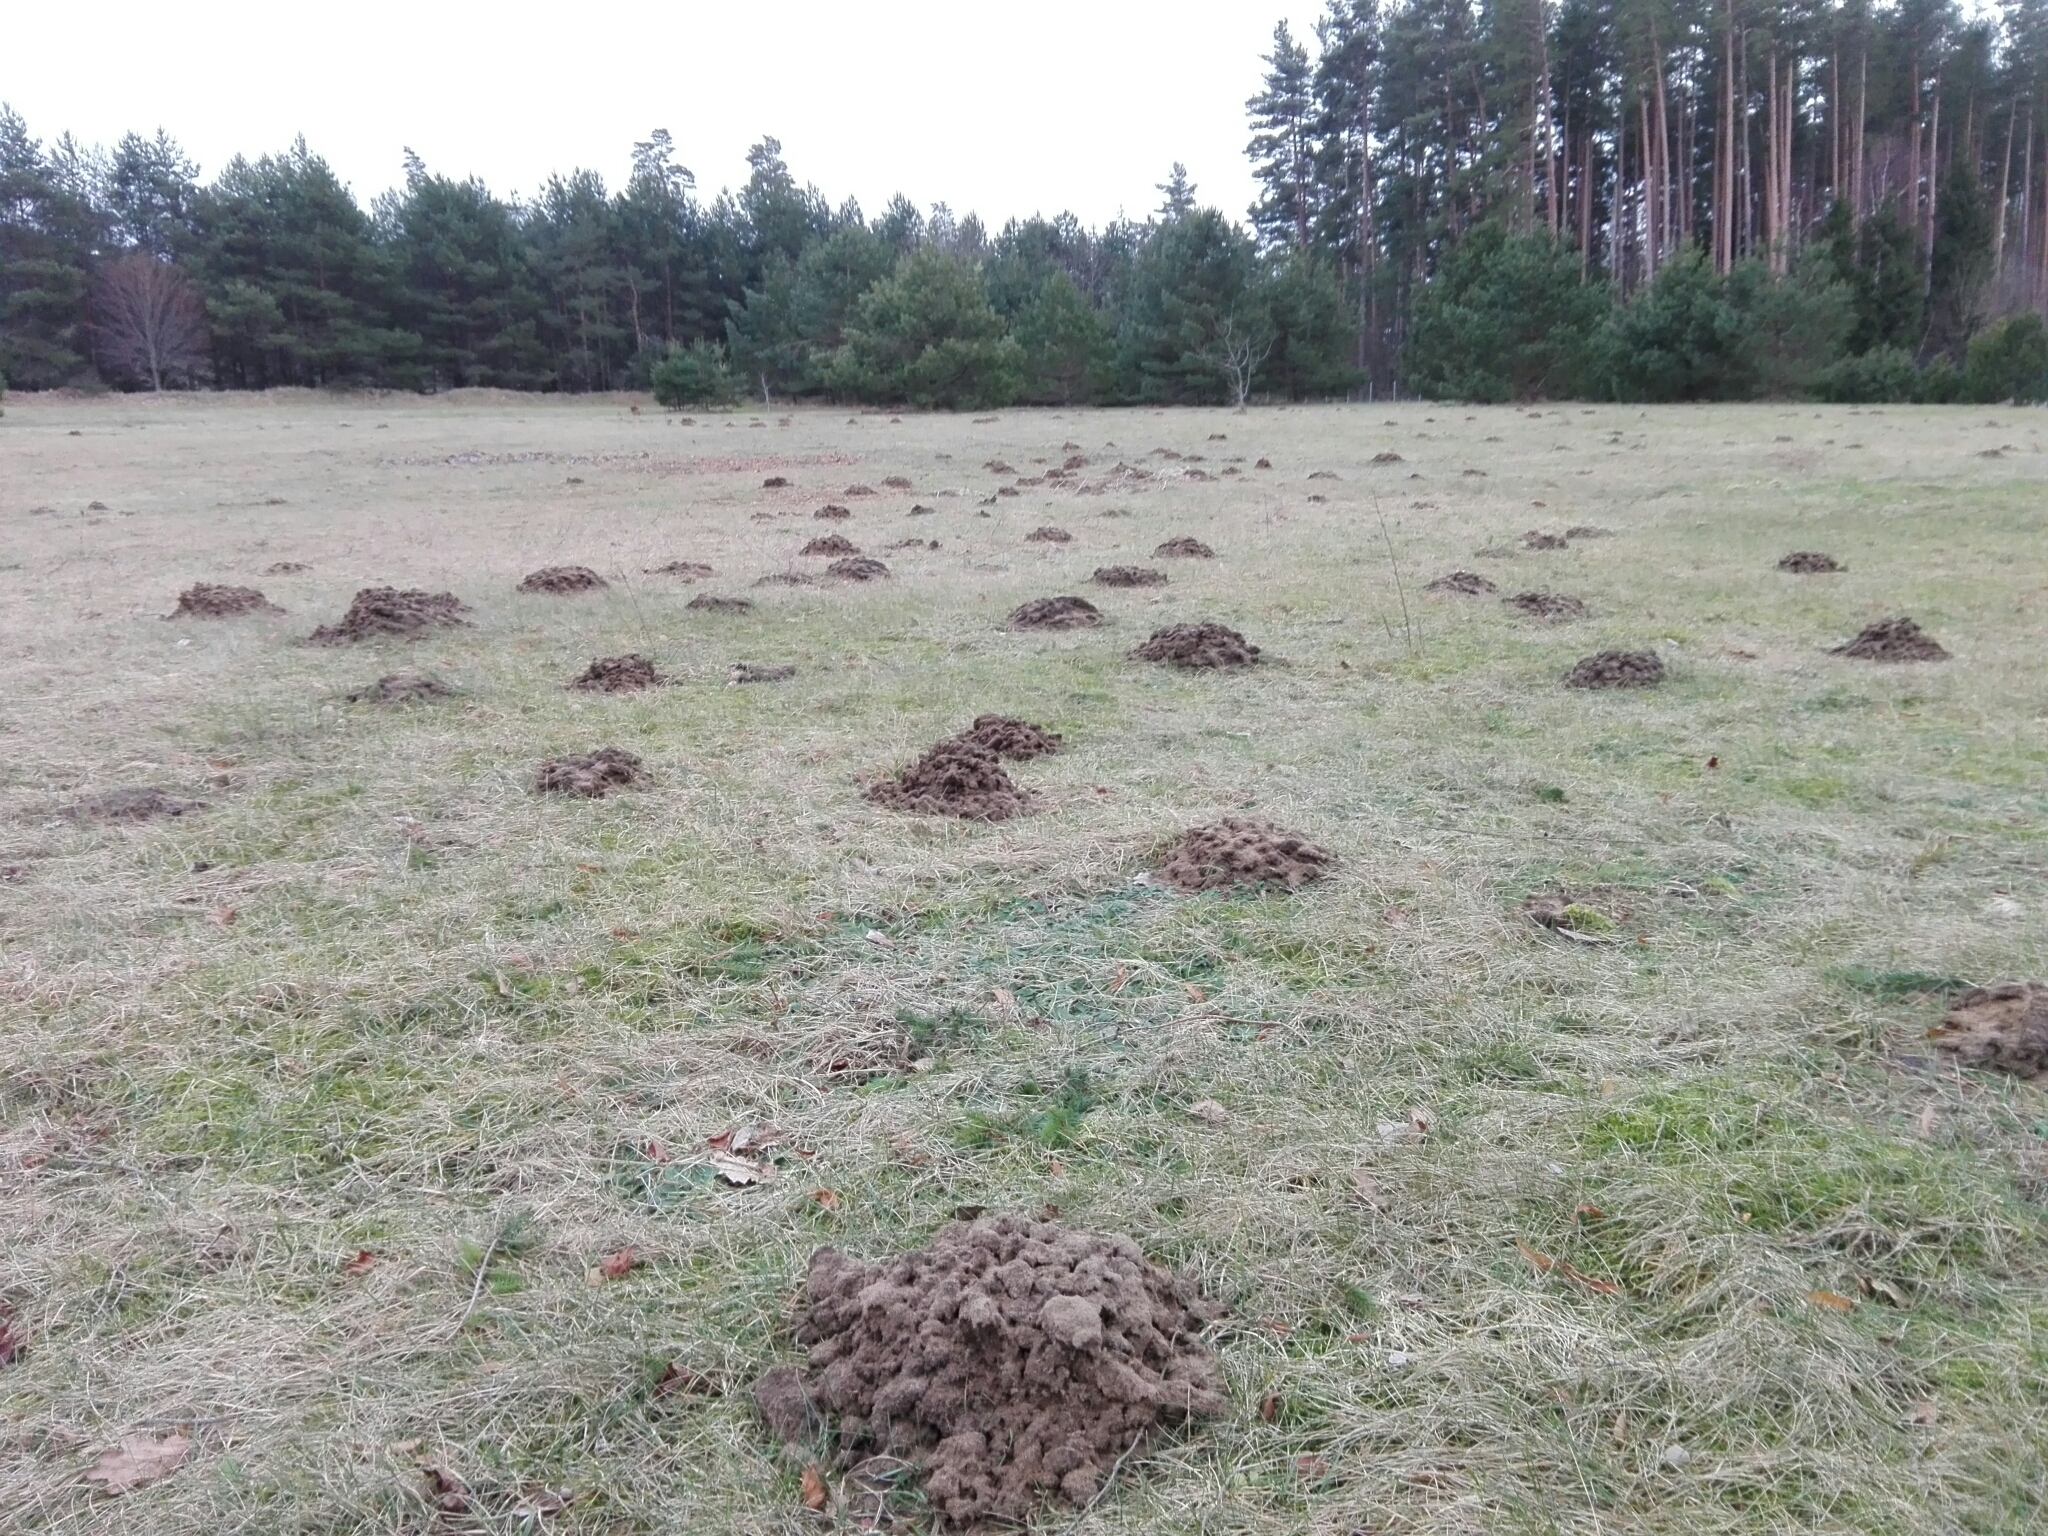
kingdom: Animalia
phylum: Chordata
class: Mammalia
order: Soricomorpha
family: Talpidae
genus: Talpa
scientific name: Talpa europaea
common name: European mole
